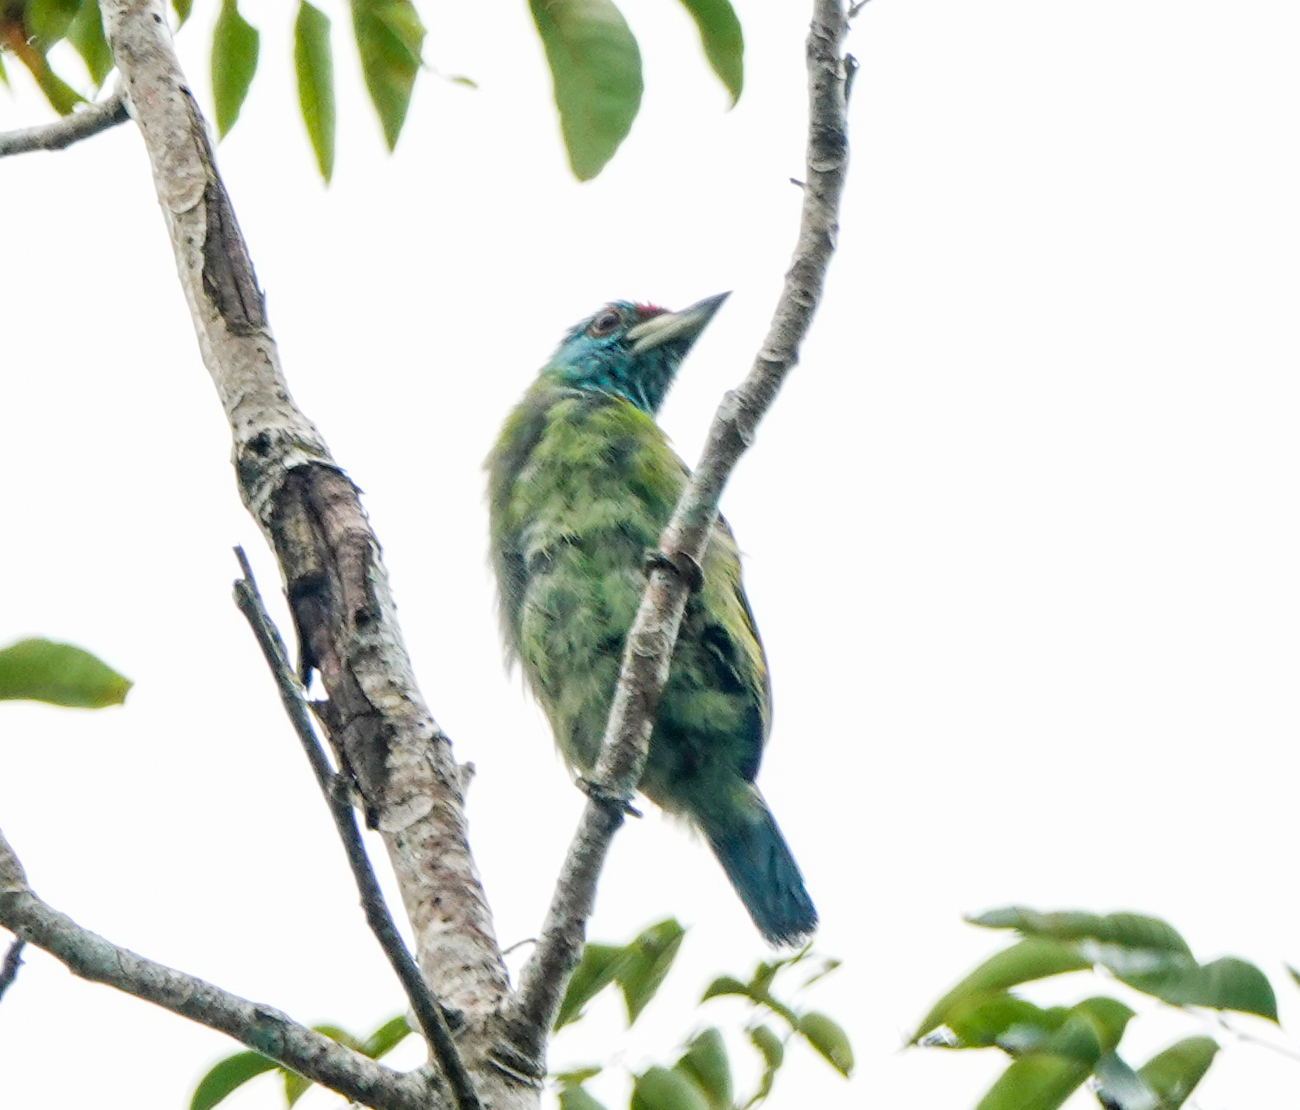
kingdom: Animalia
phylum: Chordata
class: Aves
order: Piciformes
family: Megalaimidae
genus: Psilopogon
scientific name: Psilopogon asiaticus
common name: Blue-throated barbet
